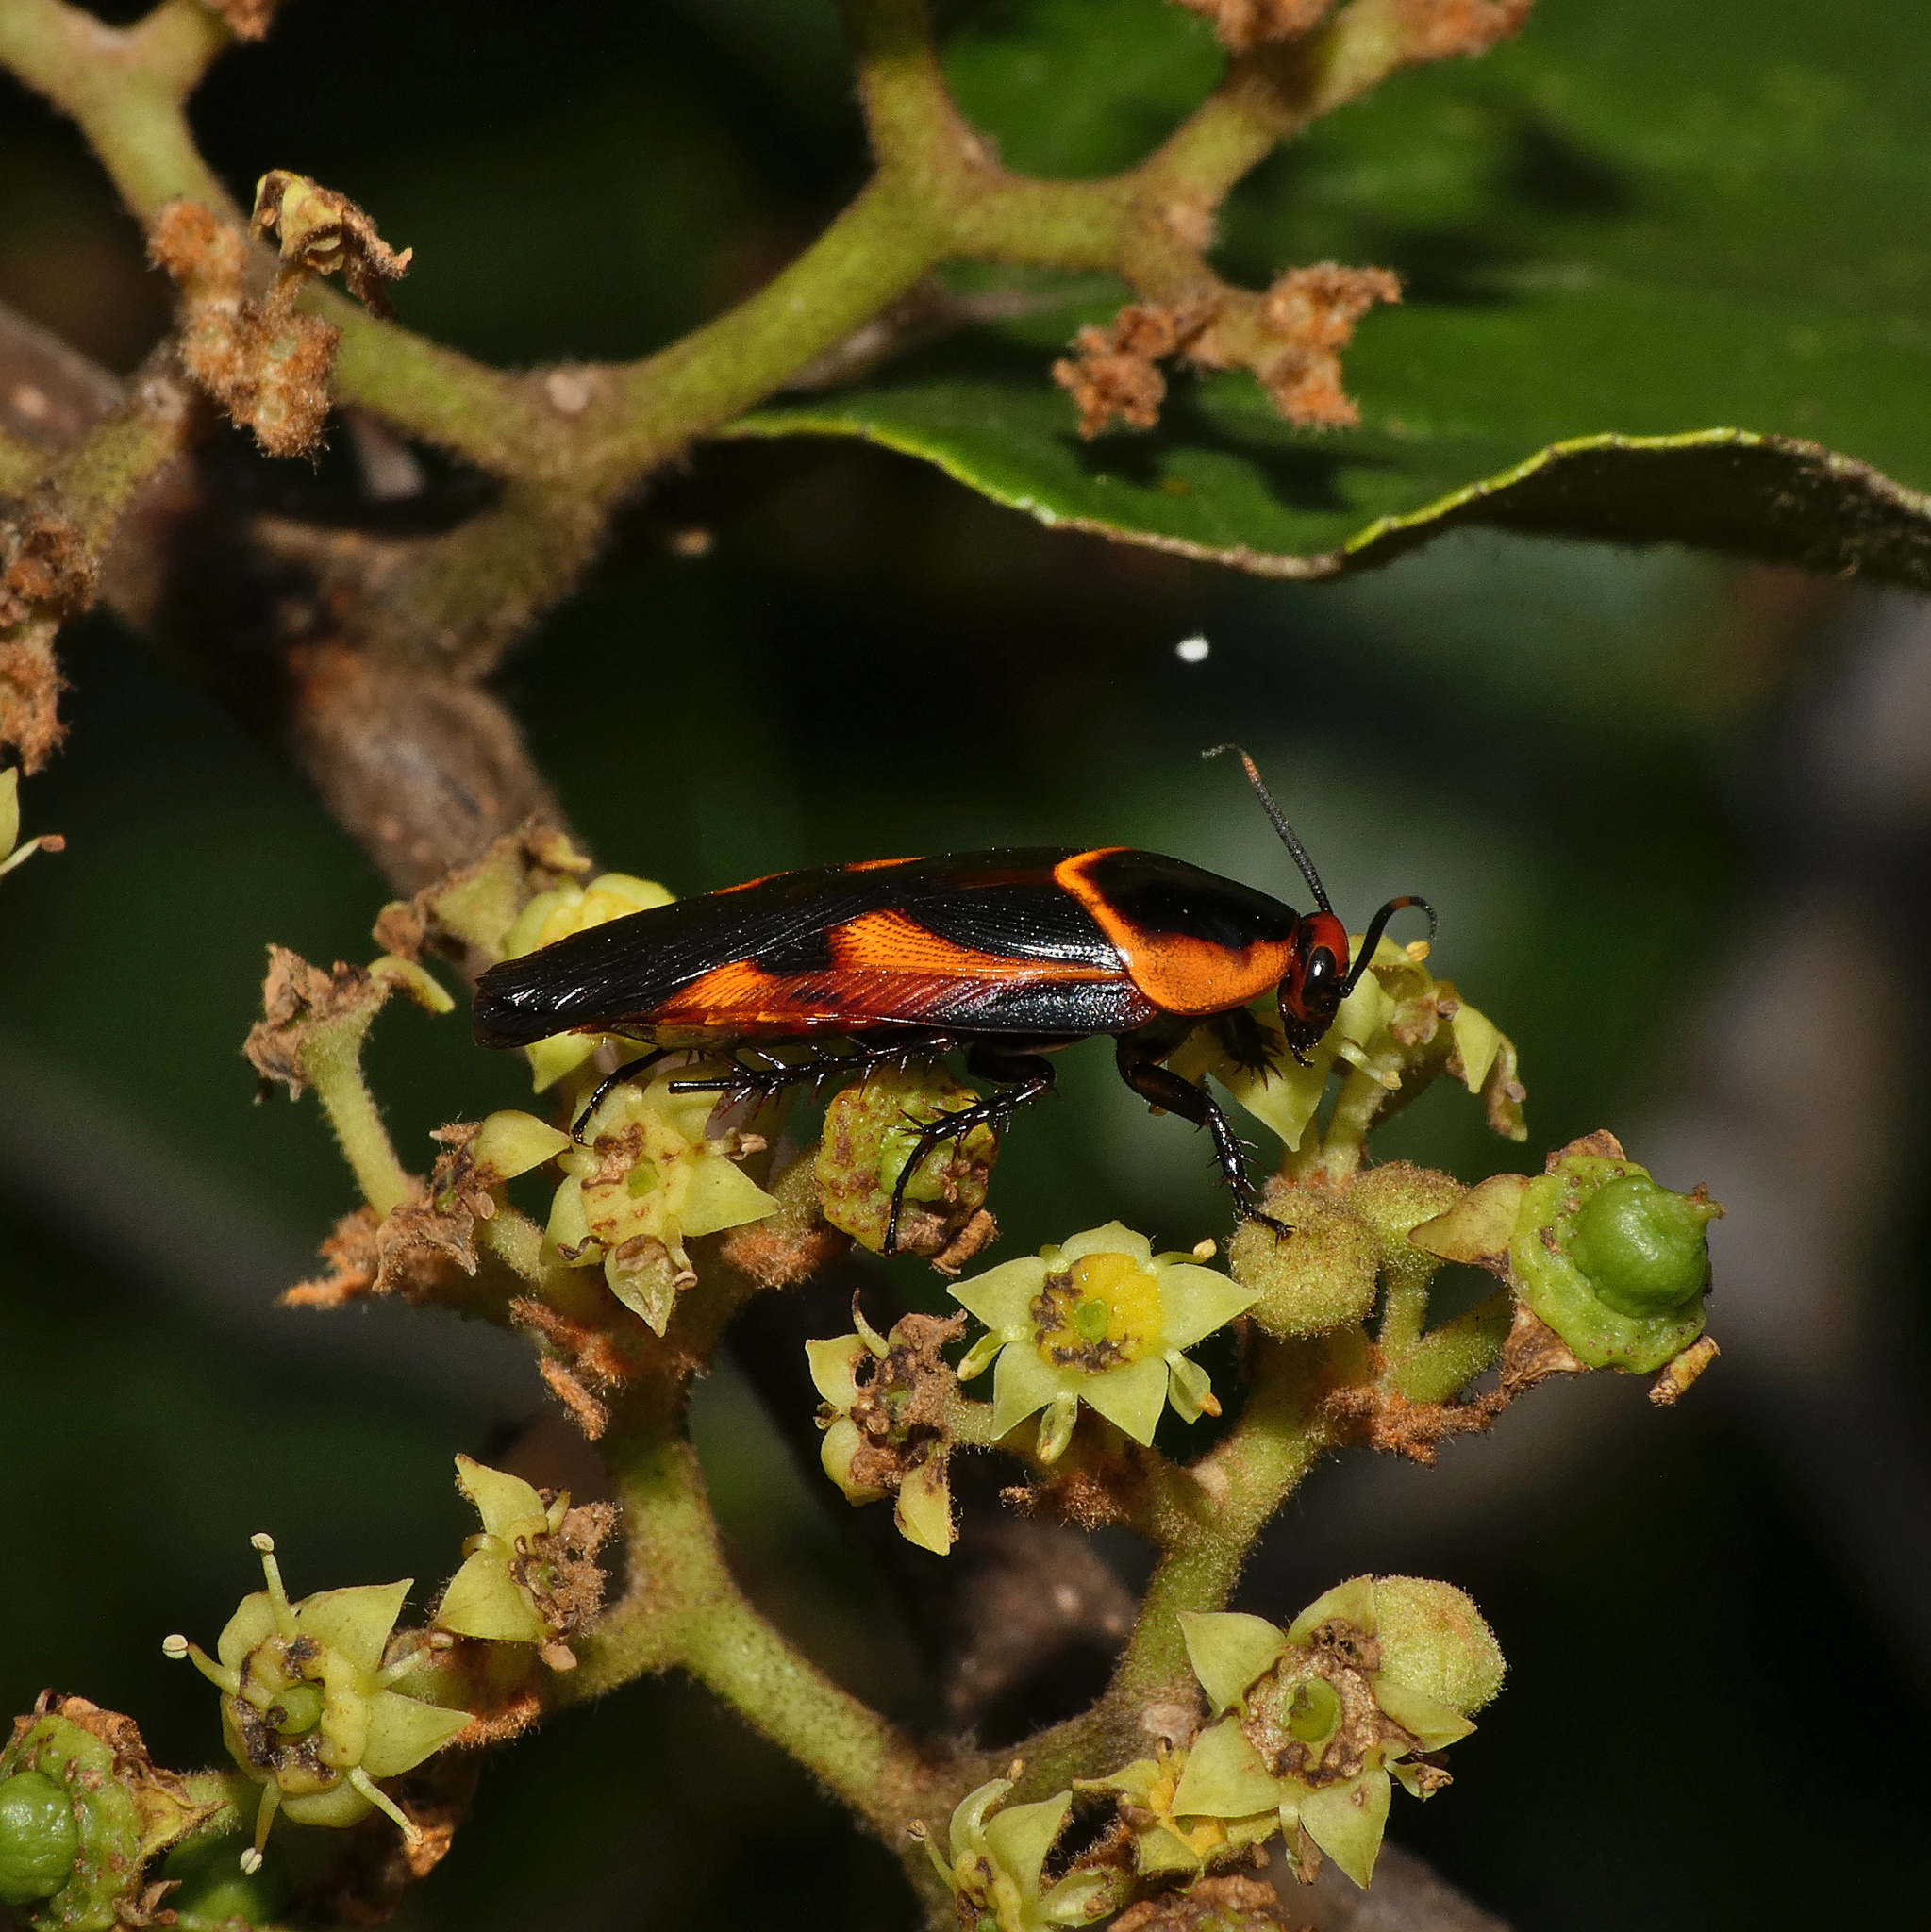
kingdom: Animalia
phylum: Arthropoda
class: Insecta
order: Blattodea
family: Blaberidae
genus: Eustegasta
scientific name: Eustegasta poecila
